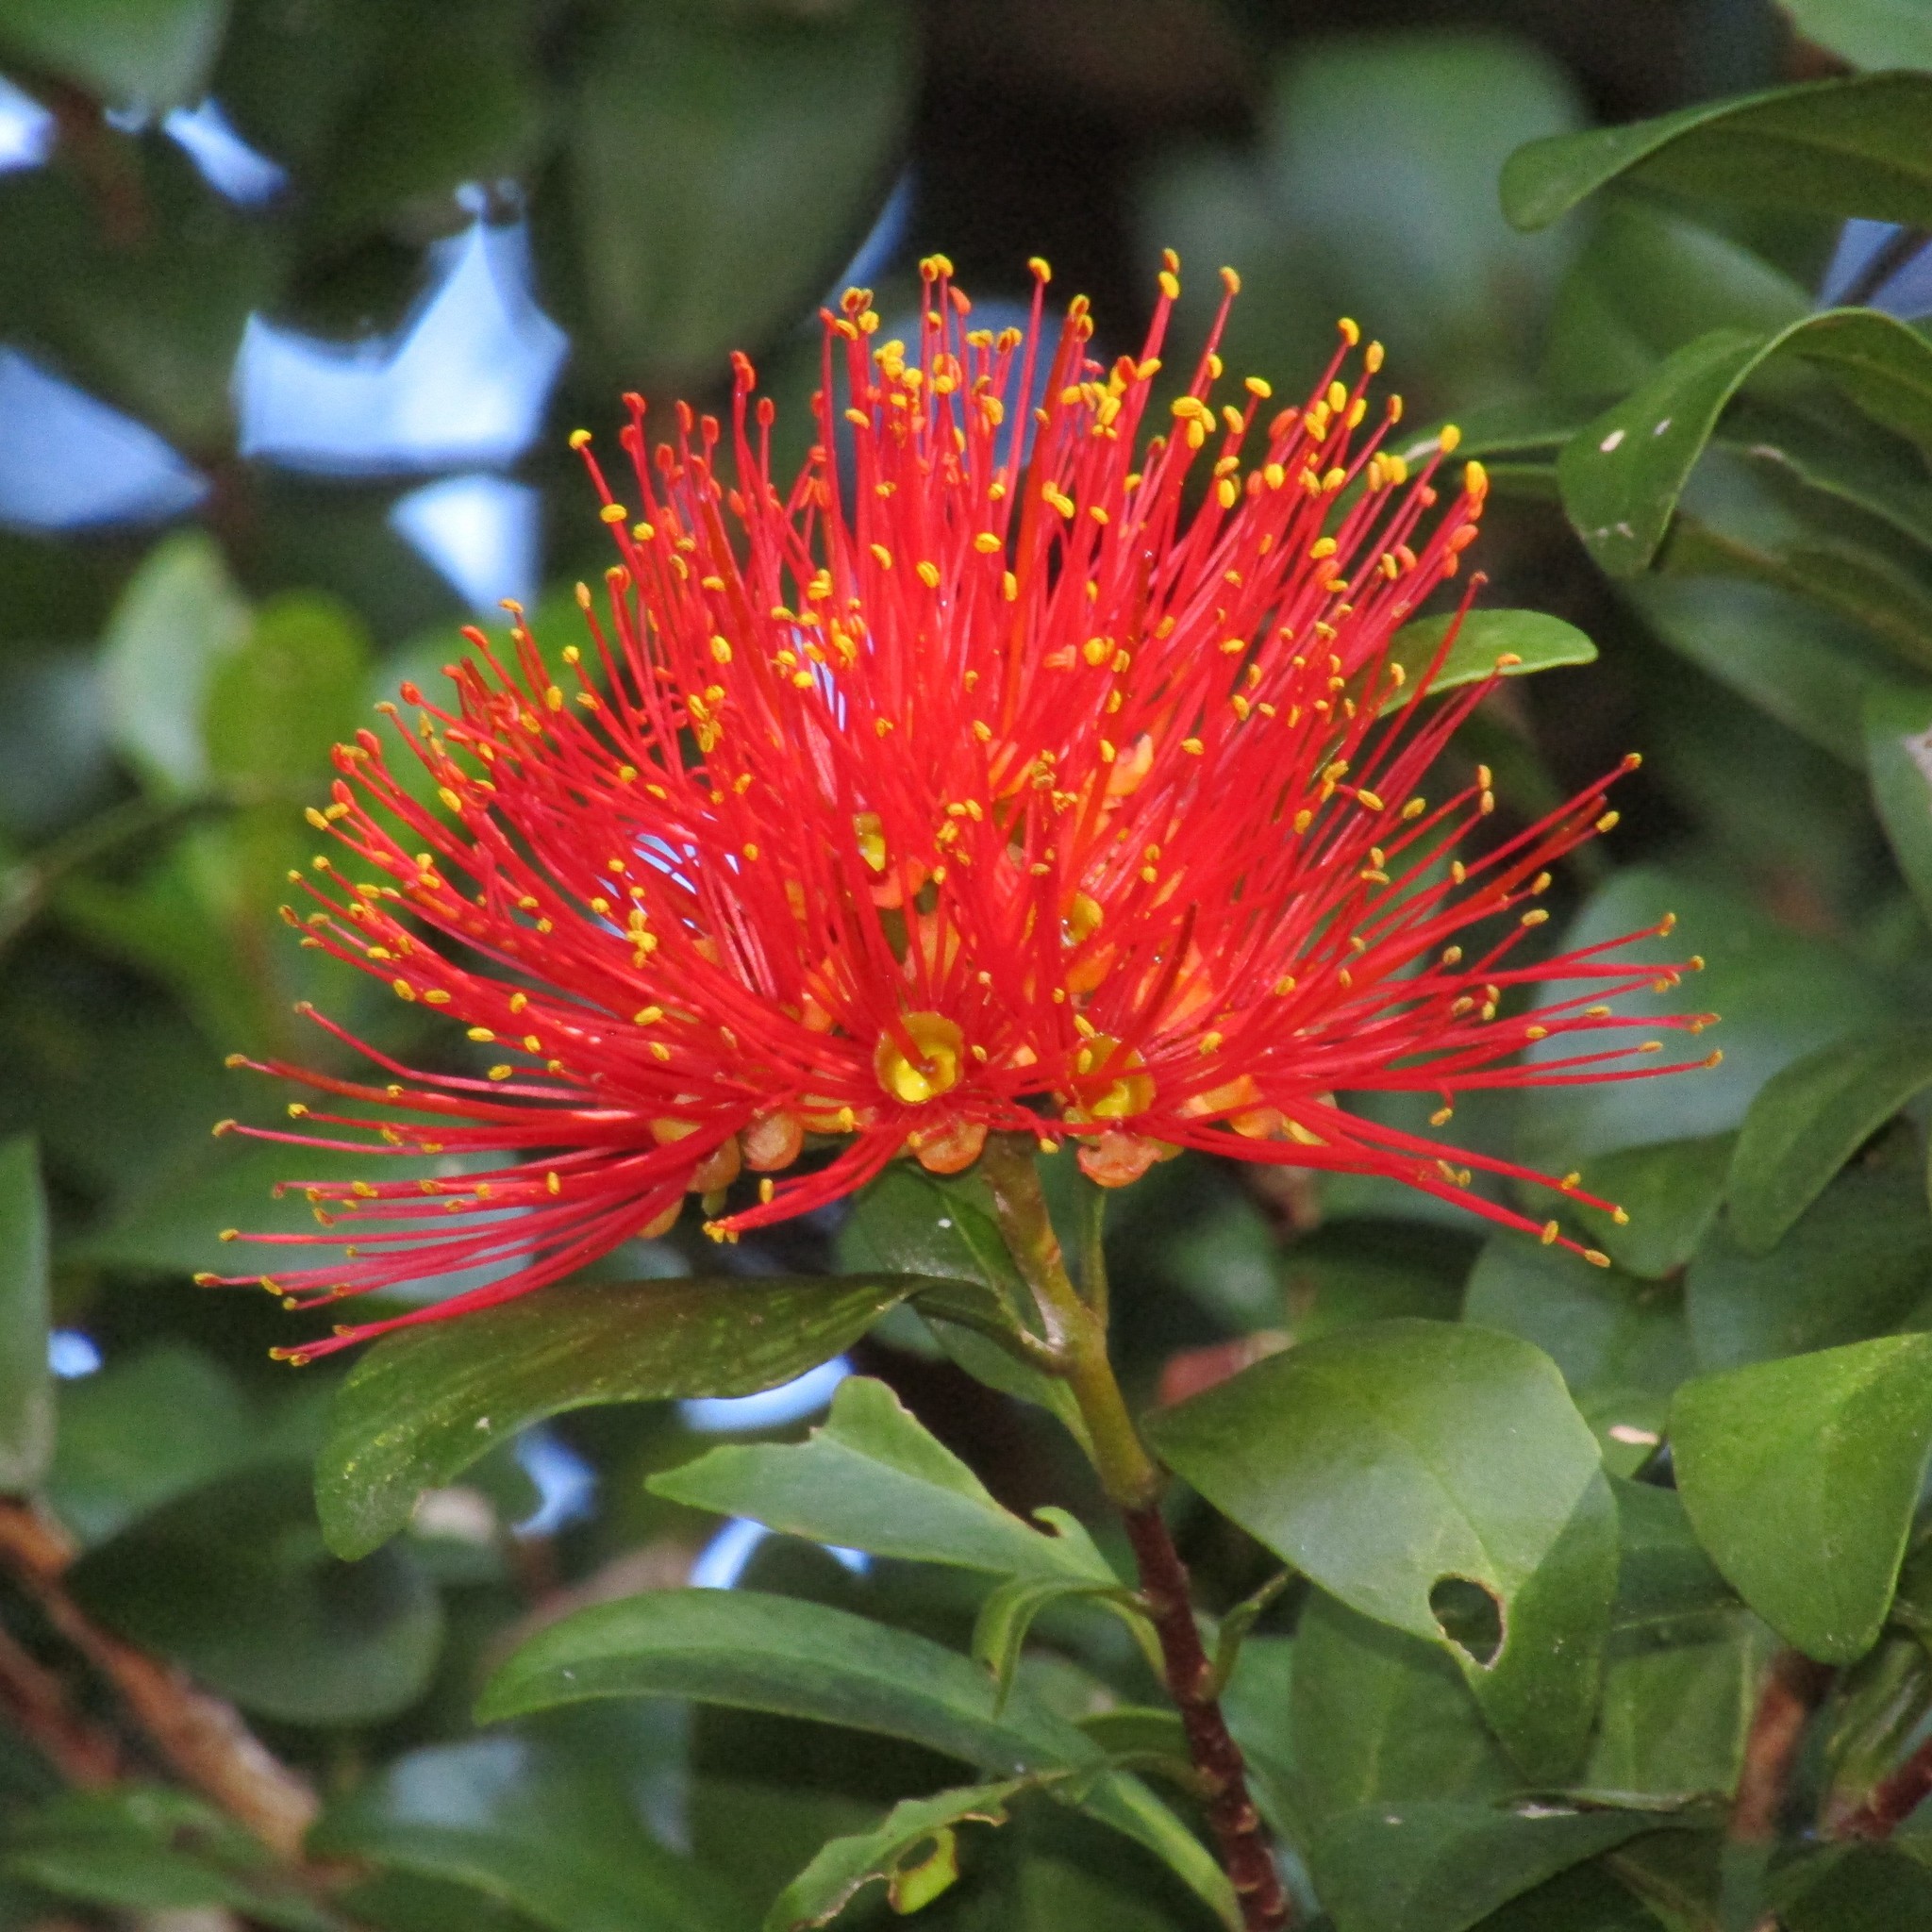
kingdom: Plantae
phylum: Tracheophyta
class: Magnoliopsida
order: Myrtales
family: Myrtaceae
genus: Metrosideros
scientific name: Metrosideros fulgens
